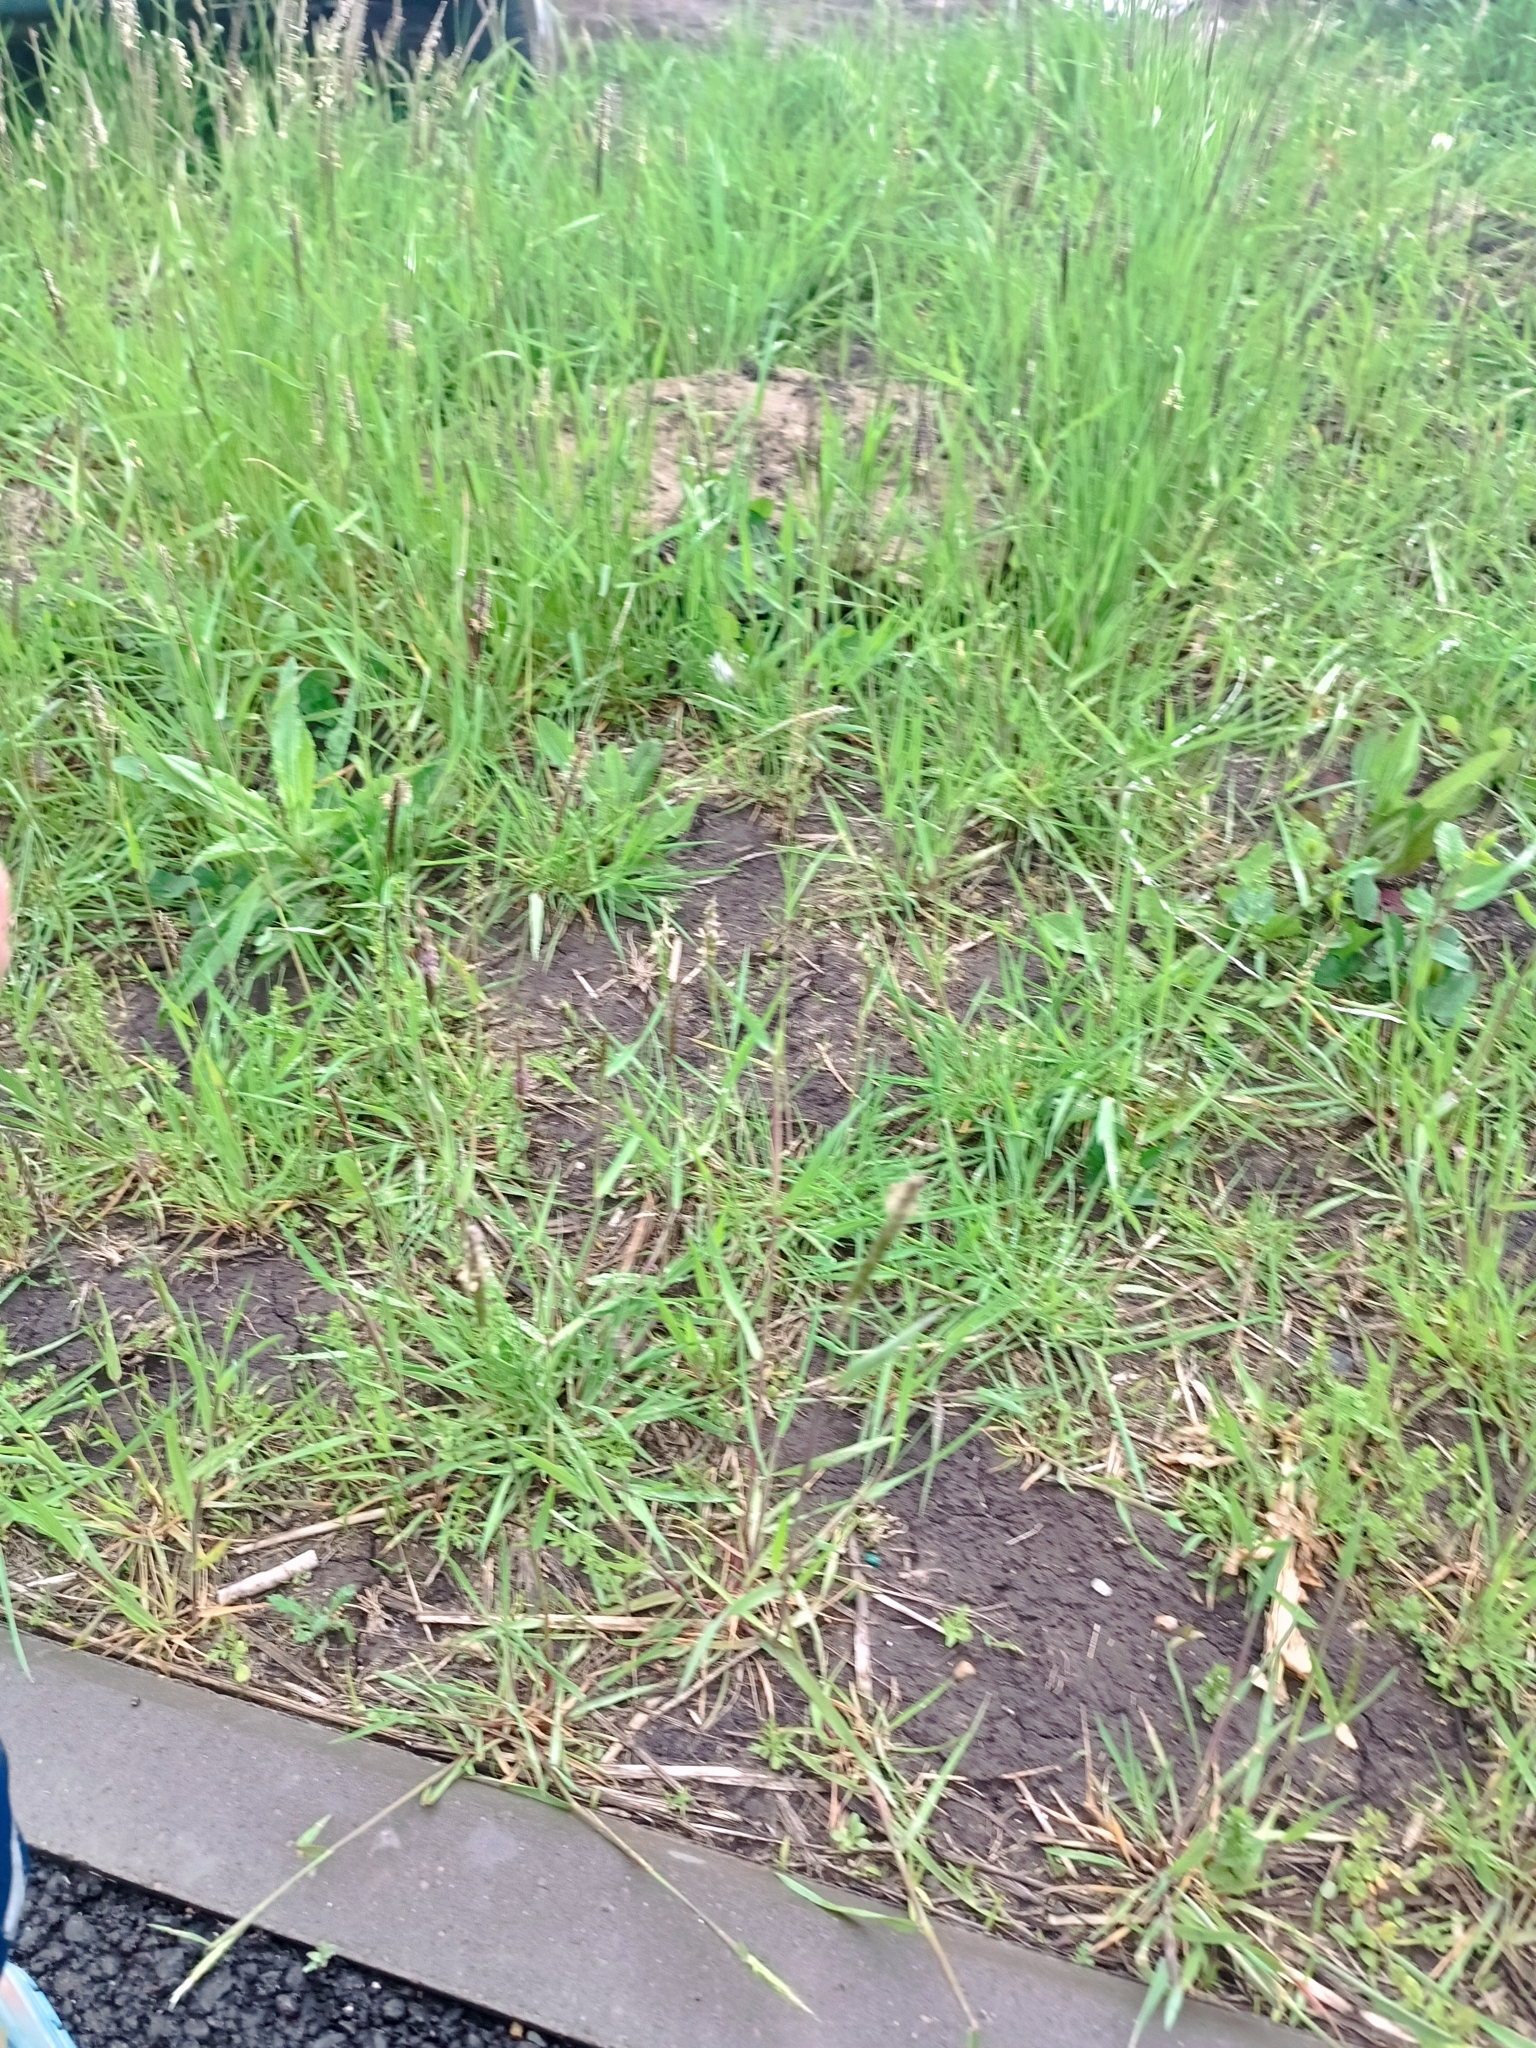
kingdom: Plantae
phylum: Tracheophyta
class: Liliopsida
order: Poales
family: Poaceae
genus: Alopecurus
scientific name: Alopecurus myosuroides
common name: Black-grass
